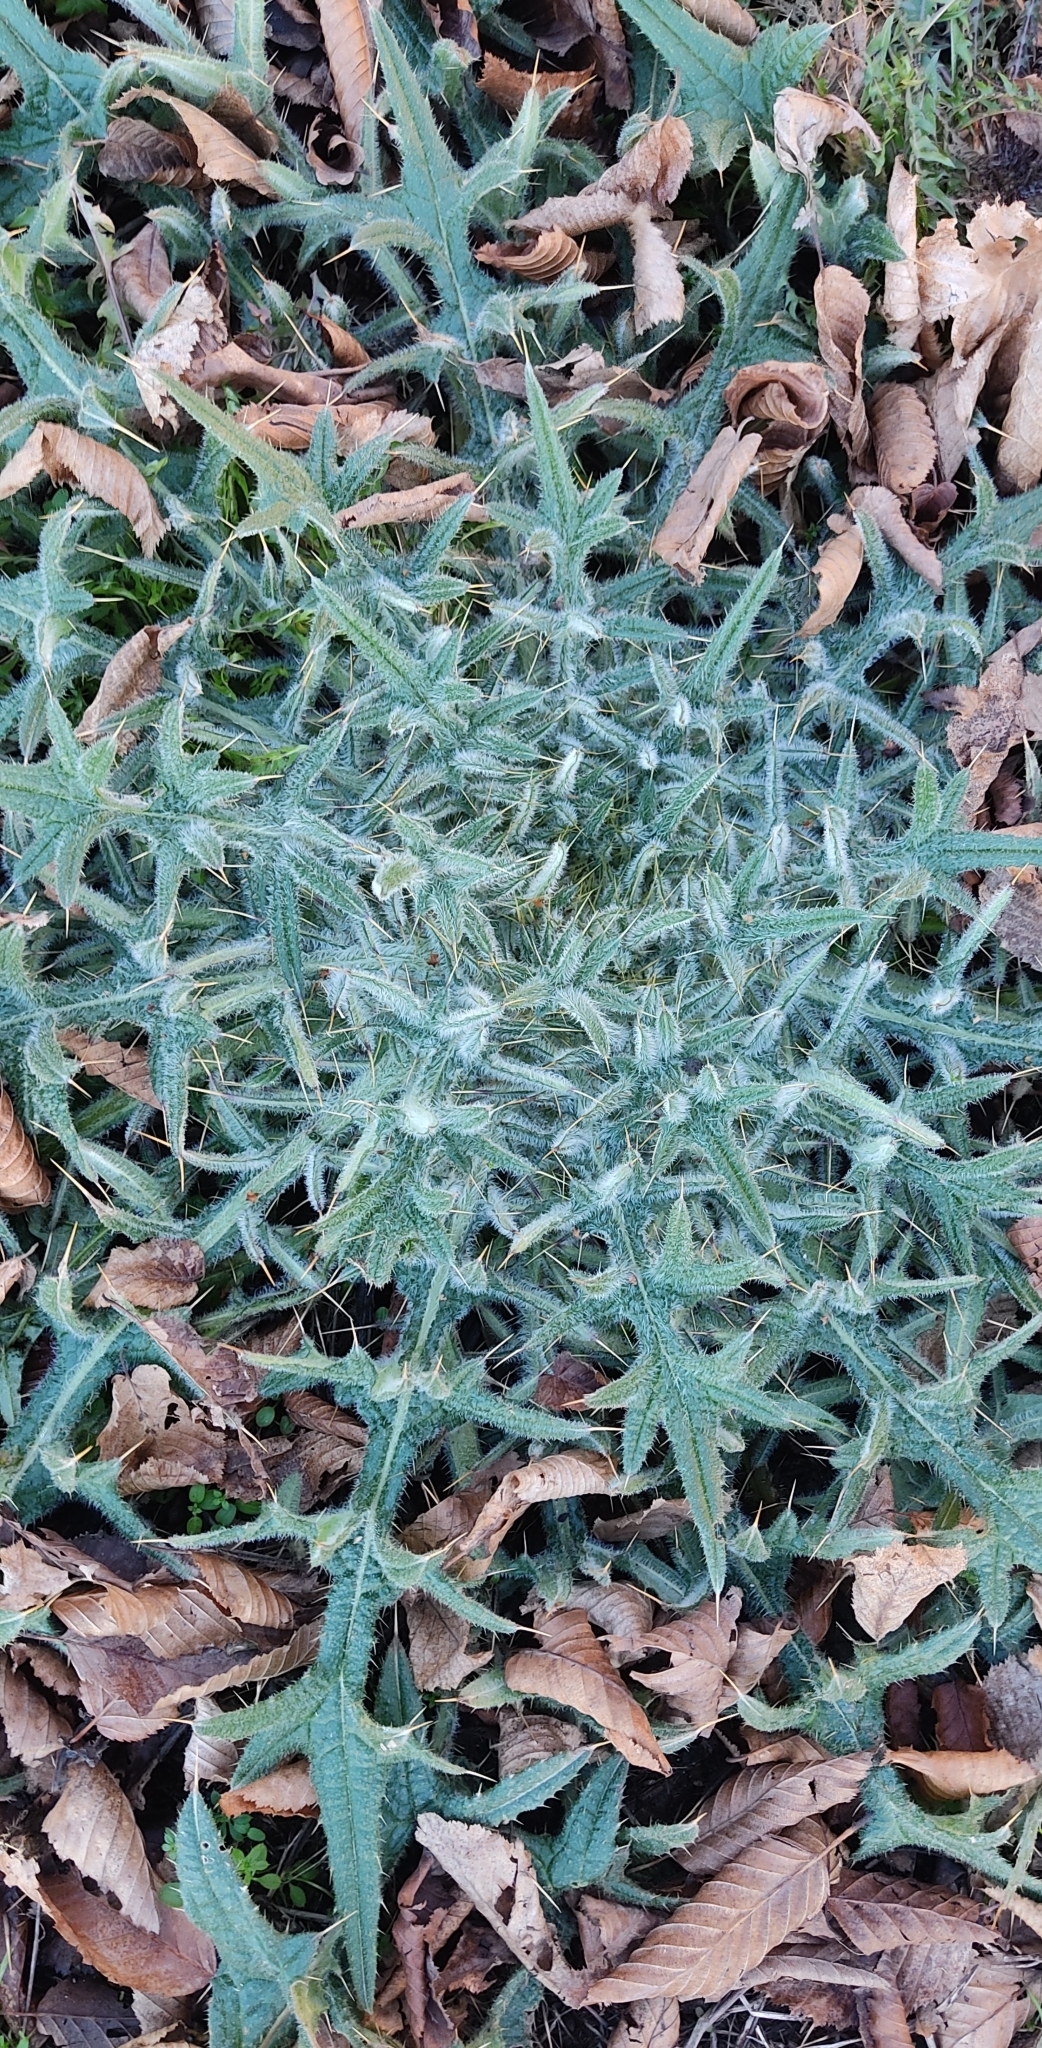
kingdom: Plantae
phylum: Tracheophyta
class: Magnoliopsida
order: Asterales
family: Asteraceae
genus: Cirsium
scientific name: Cirsium vulgare
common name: Bull thistle
